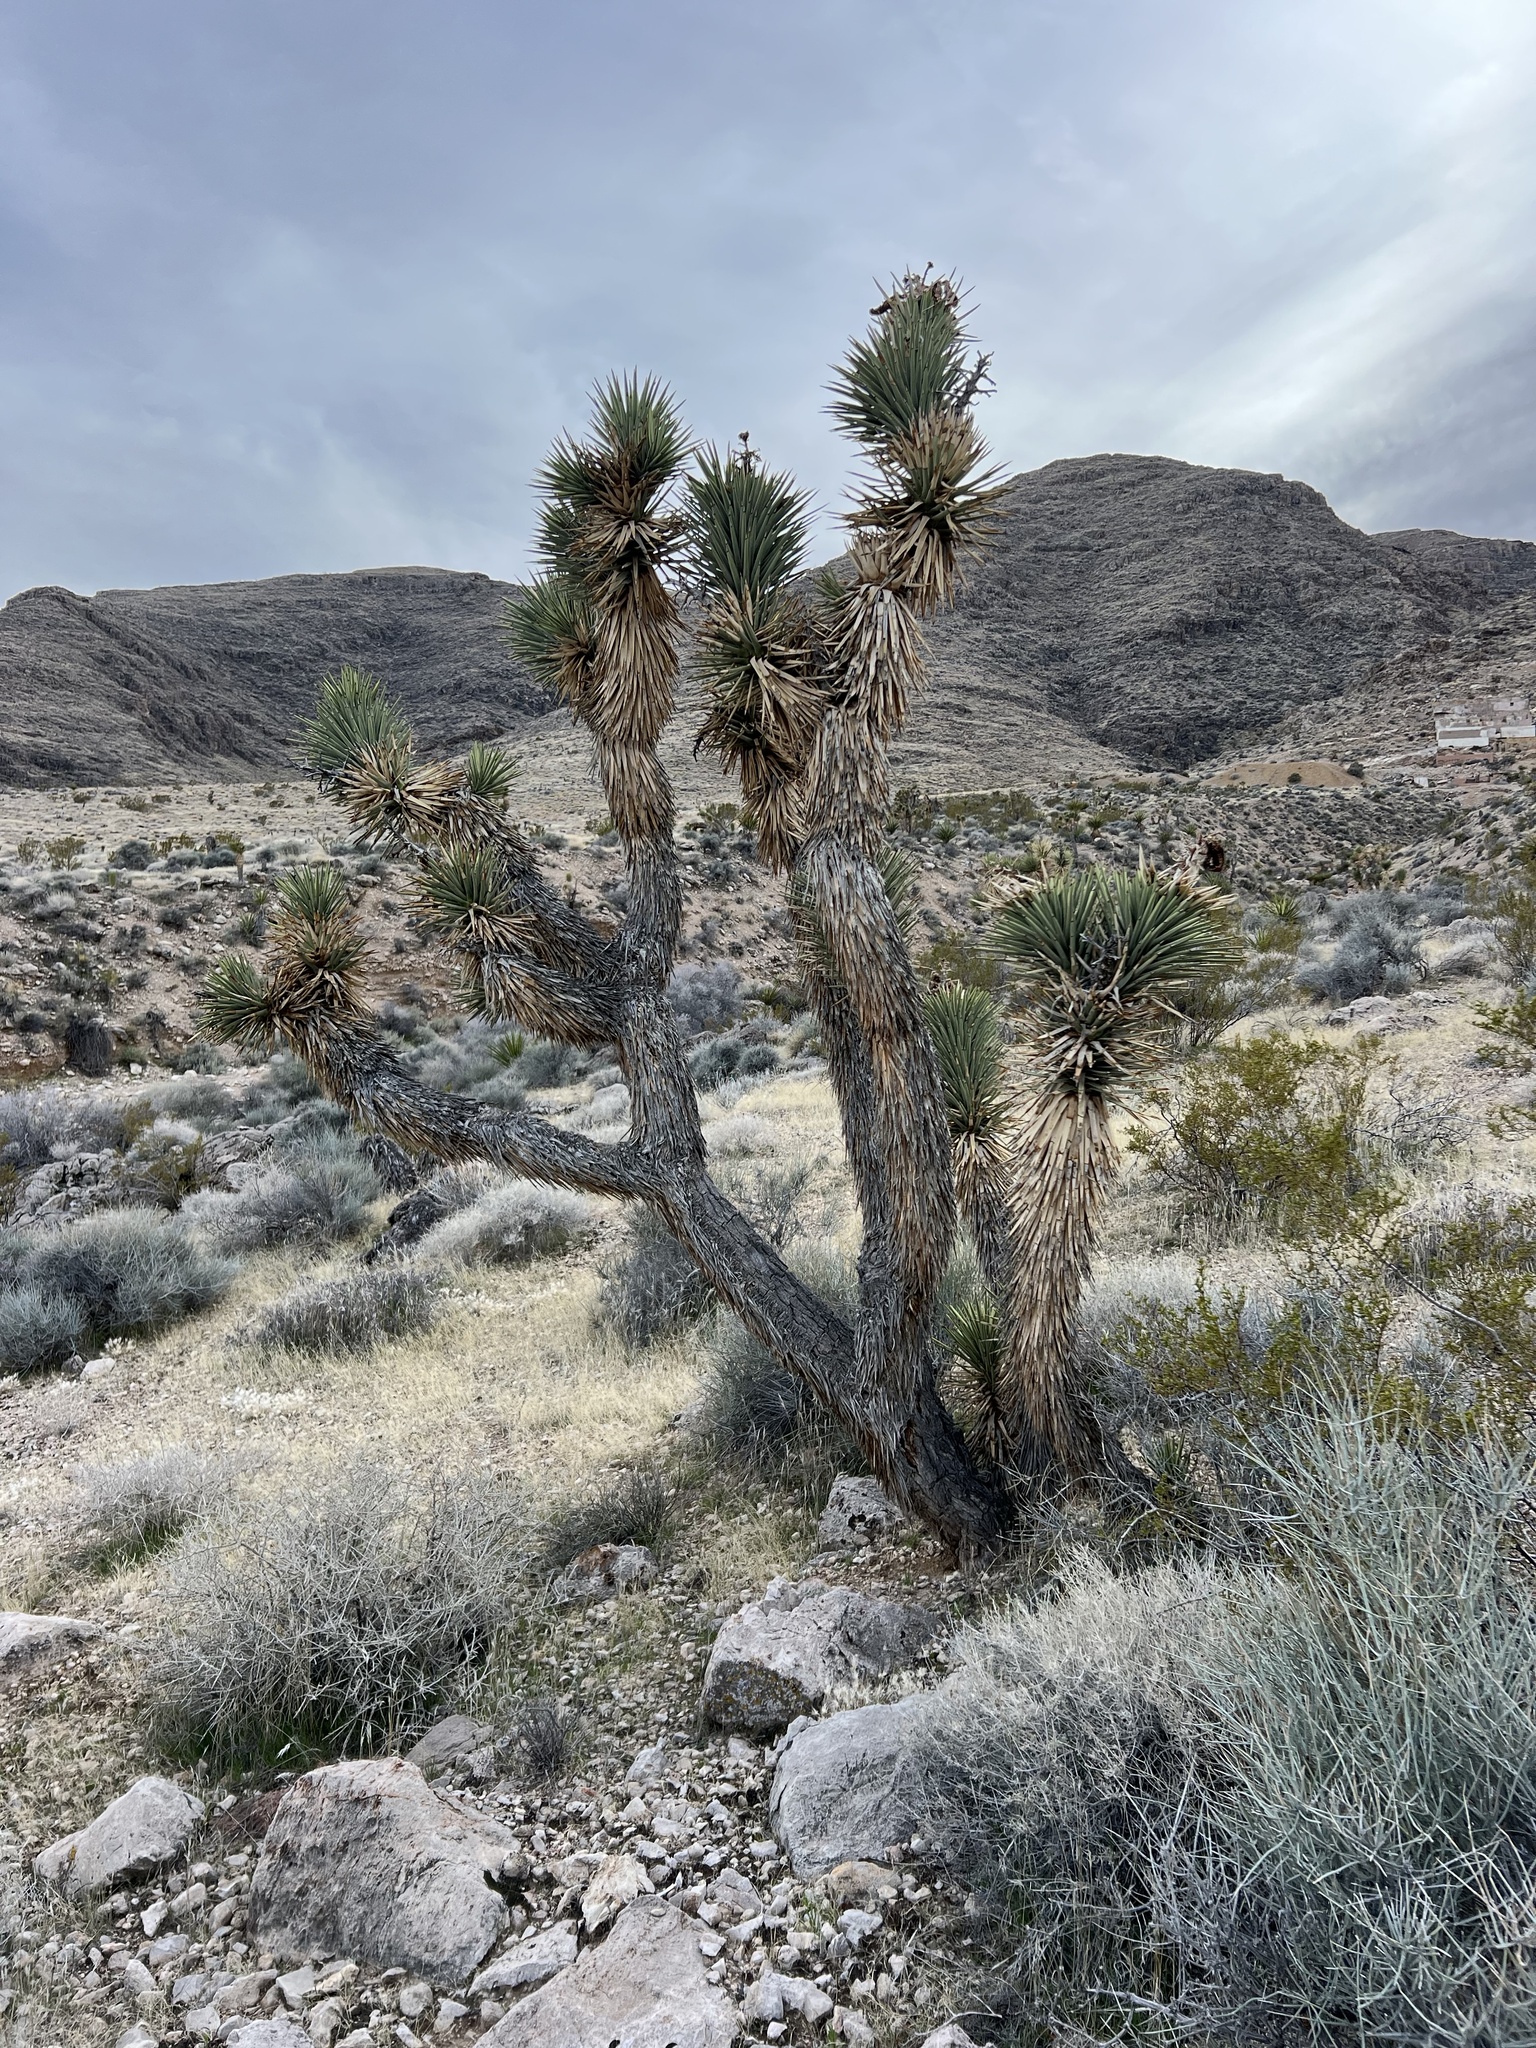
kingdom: Plantae
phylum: Tracheophyta
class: Liliopsida
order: Asparagales
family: Asparagaceae
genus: Yucca
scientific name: Yucca brevifolia
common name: Joshua tree
